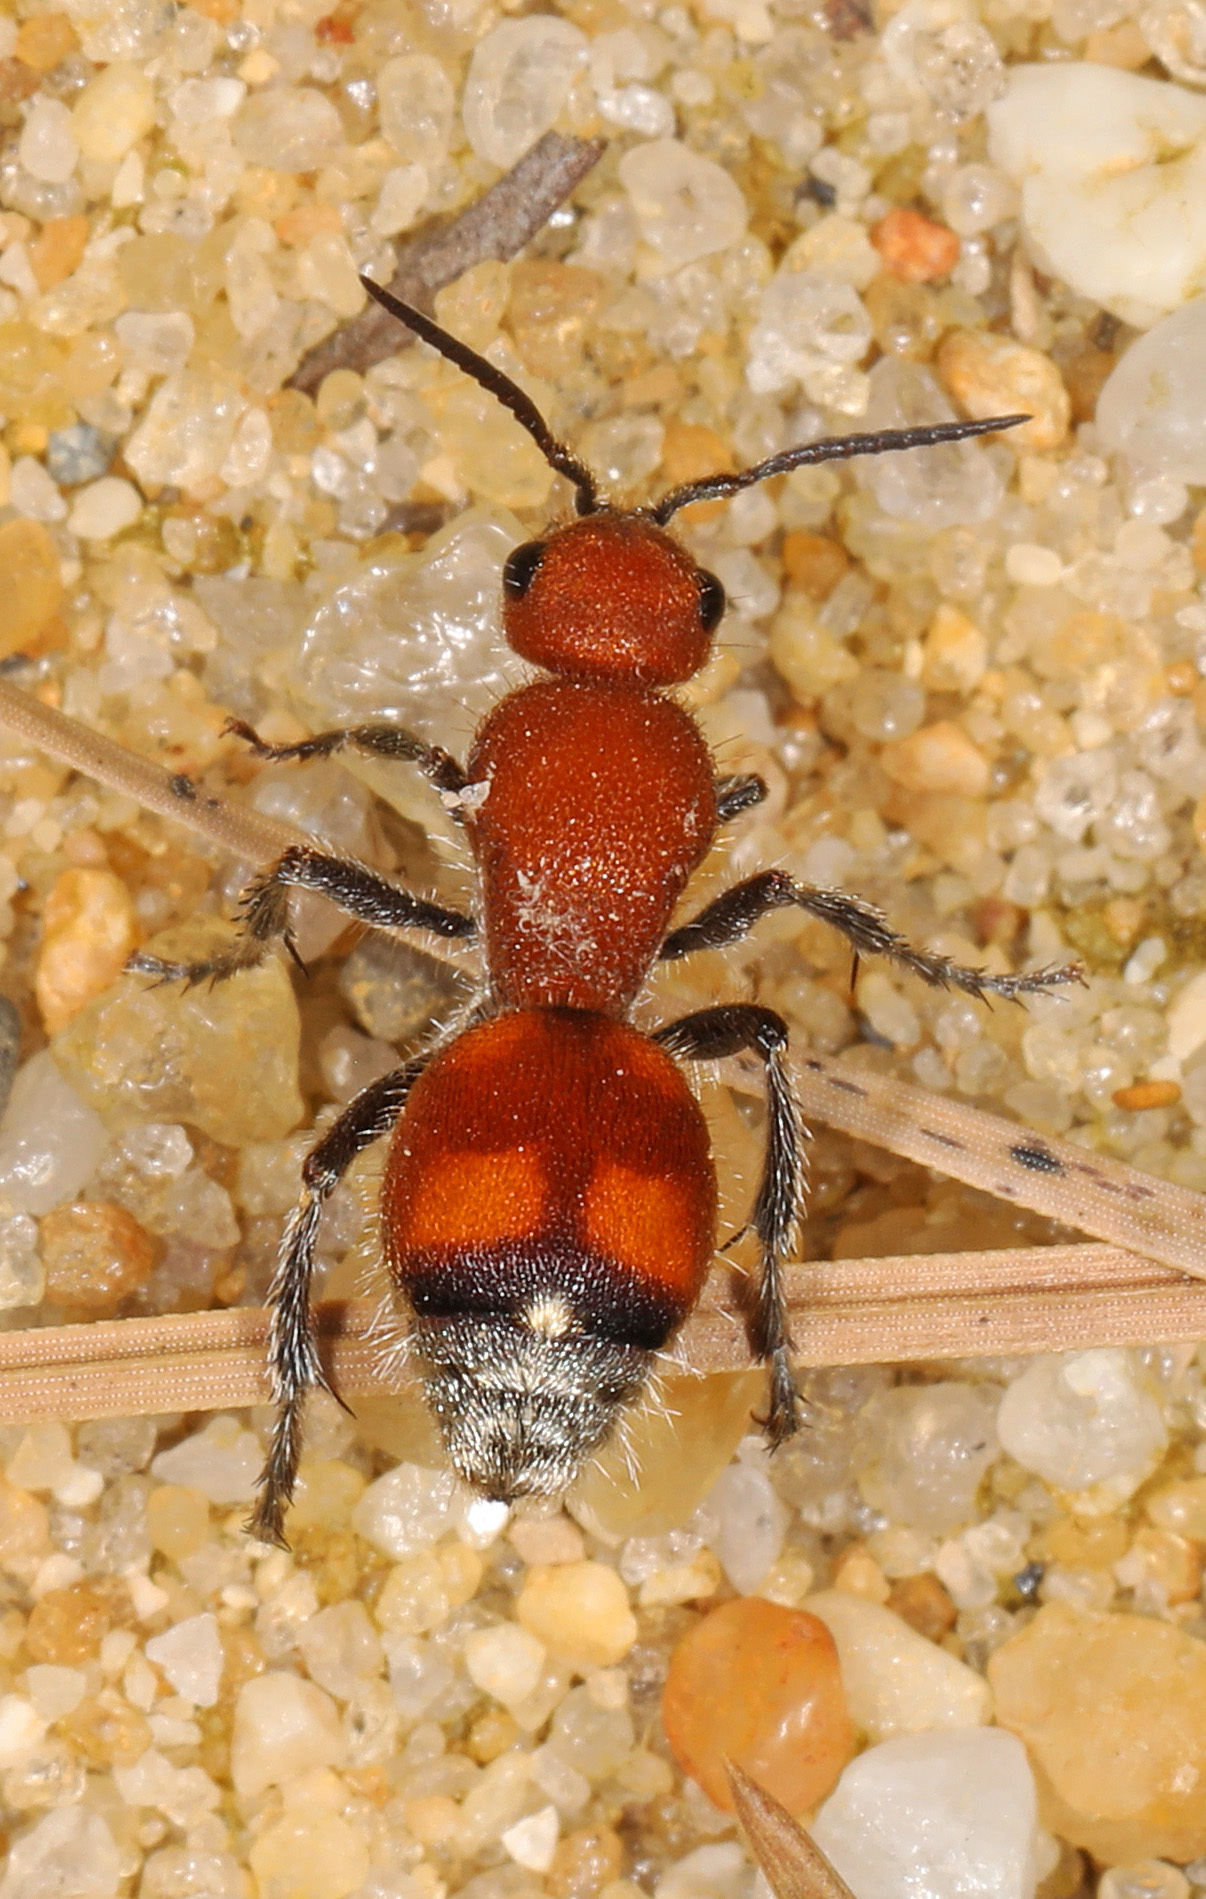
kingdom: Animalia
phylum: Arthropoda
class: Insecta
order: Hymenoptera
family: Mutillidae
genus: Dasymutilla
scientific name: Dasymutilla
